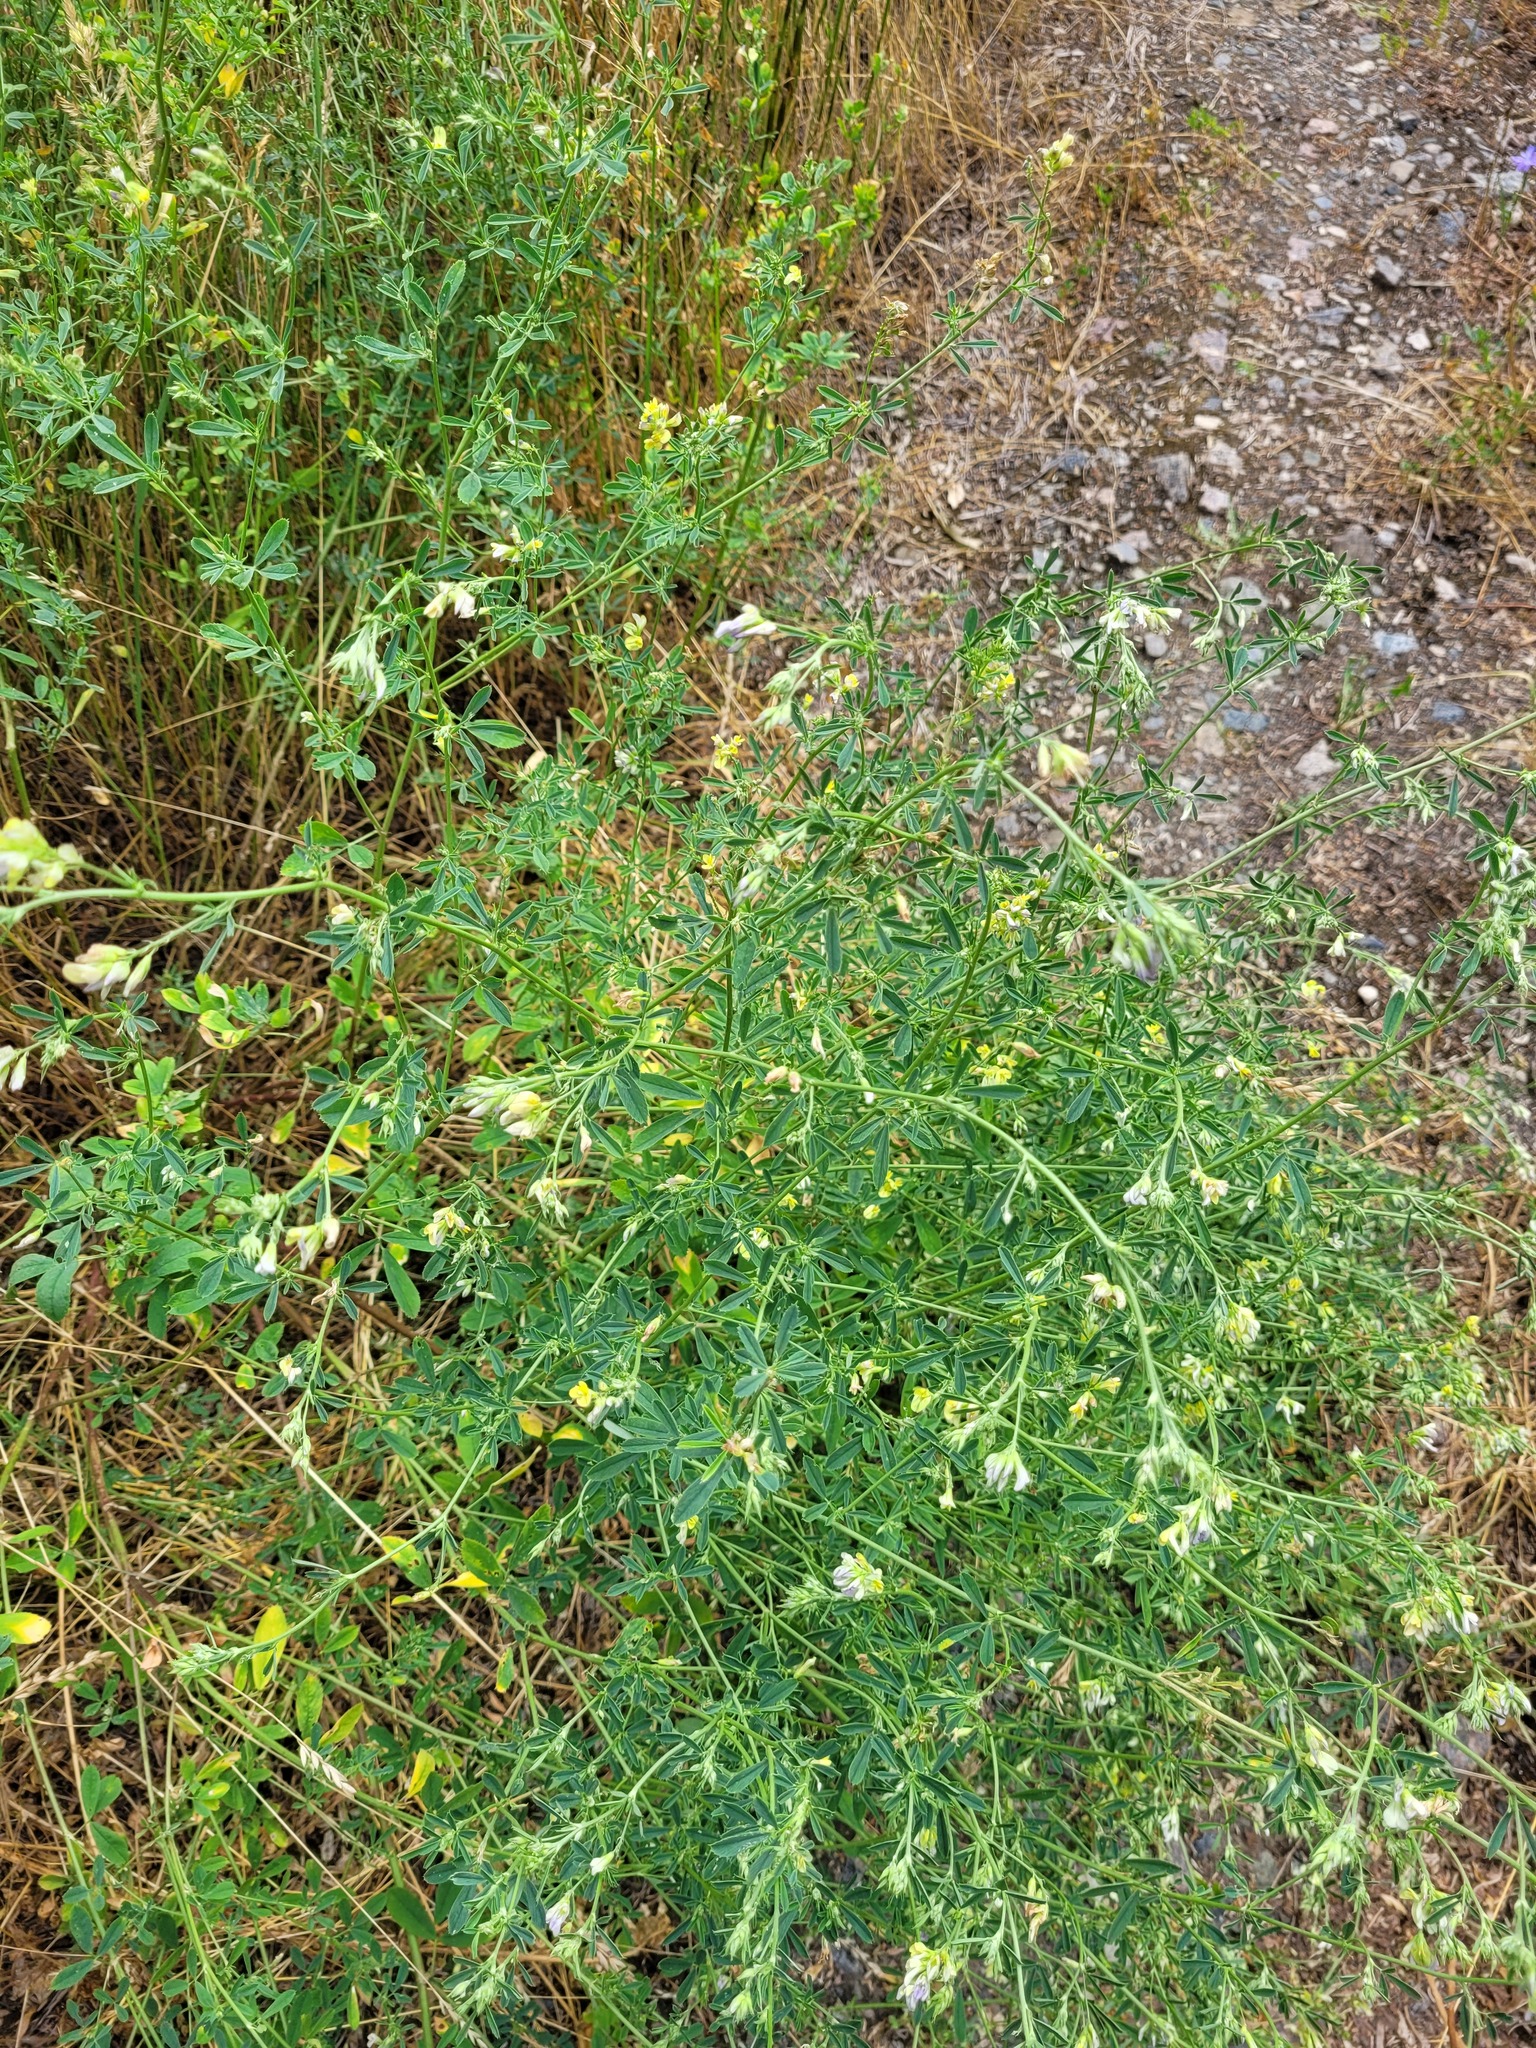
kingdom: Plantae
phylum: Tracheophyta
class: Magnoliopsida
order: Fabales
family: Fabaceae
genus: Medicago
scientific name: Medicago varia
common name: Sand lucerne
